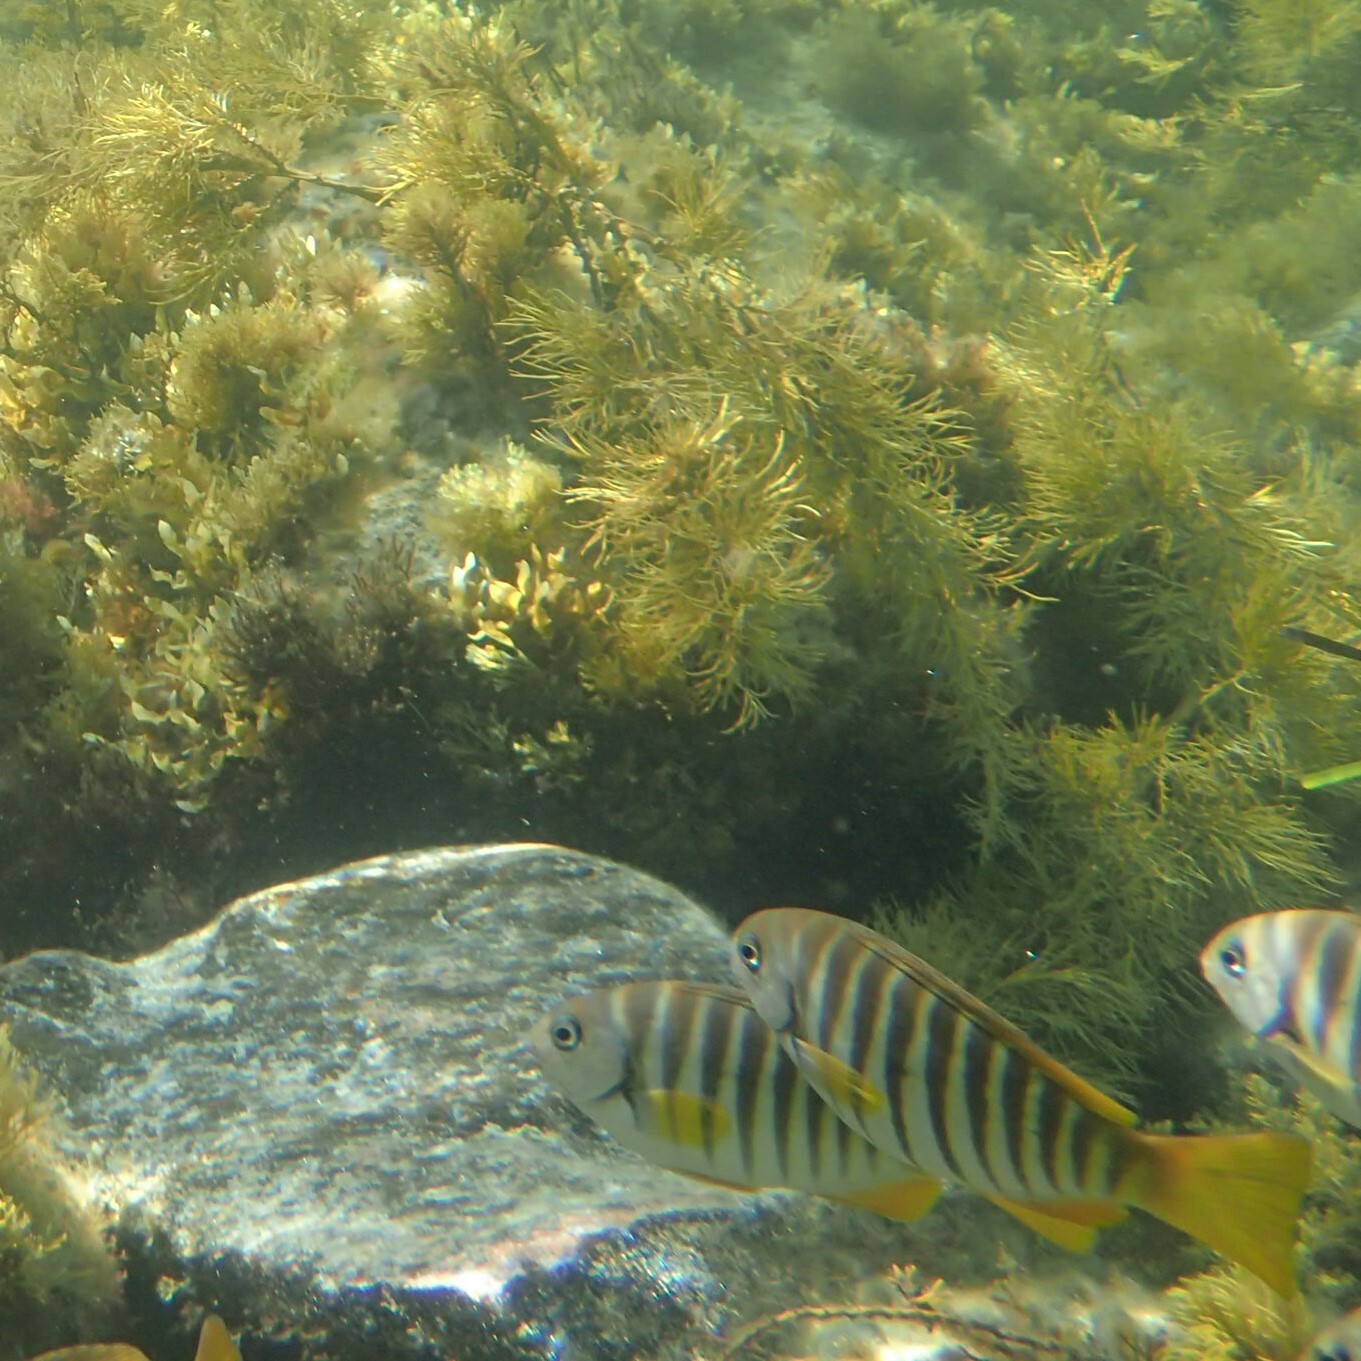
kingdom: Animalia
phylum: Chordata
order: Perciformes
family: Kyphosidae
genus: Girella
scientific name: Girella zebra
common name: Stripey bream
